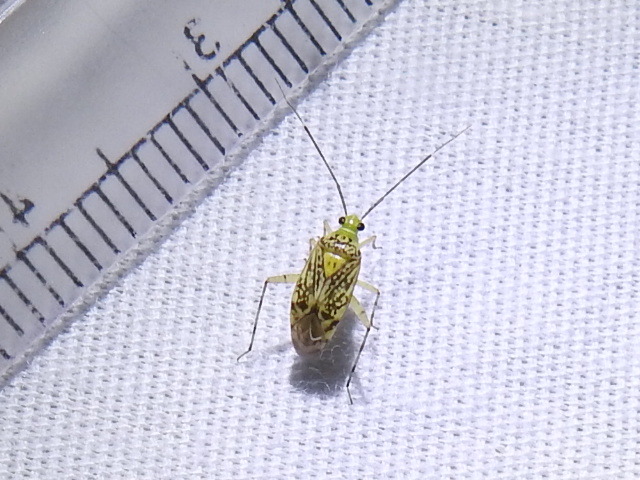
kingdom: Animalia
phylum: Arthropoda
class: Insecta
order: Hemiptera
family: Miridae
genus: Taedia
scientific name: Taedia marmorata
